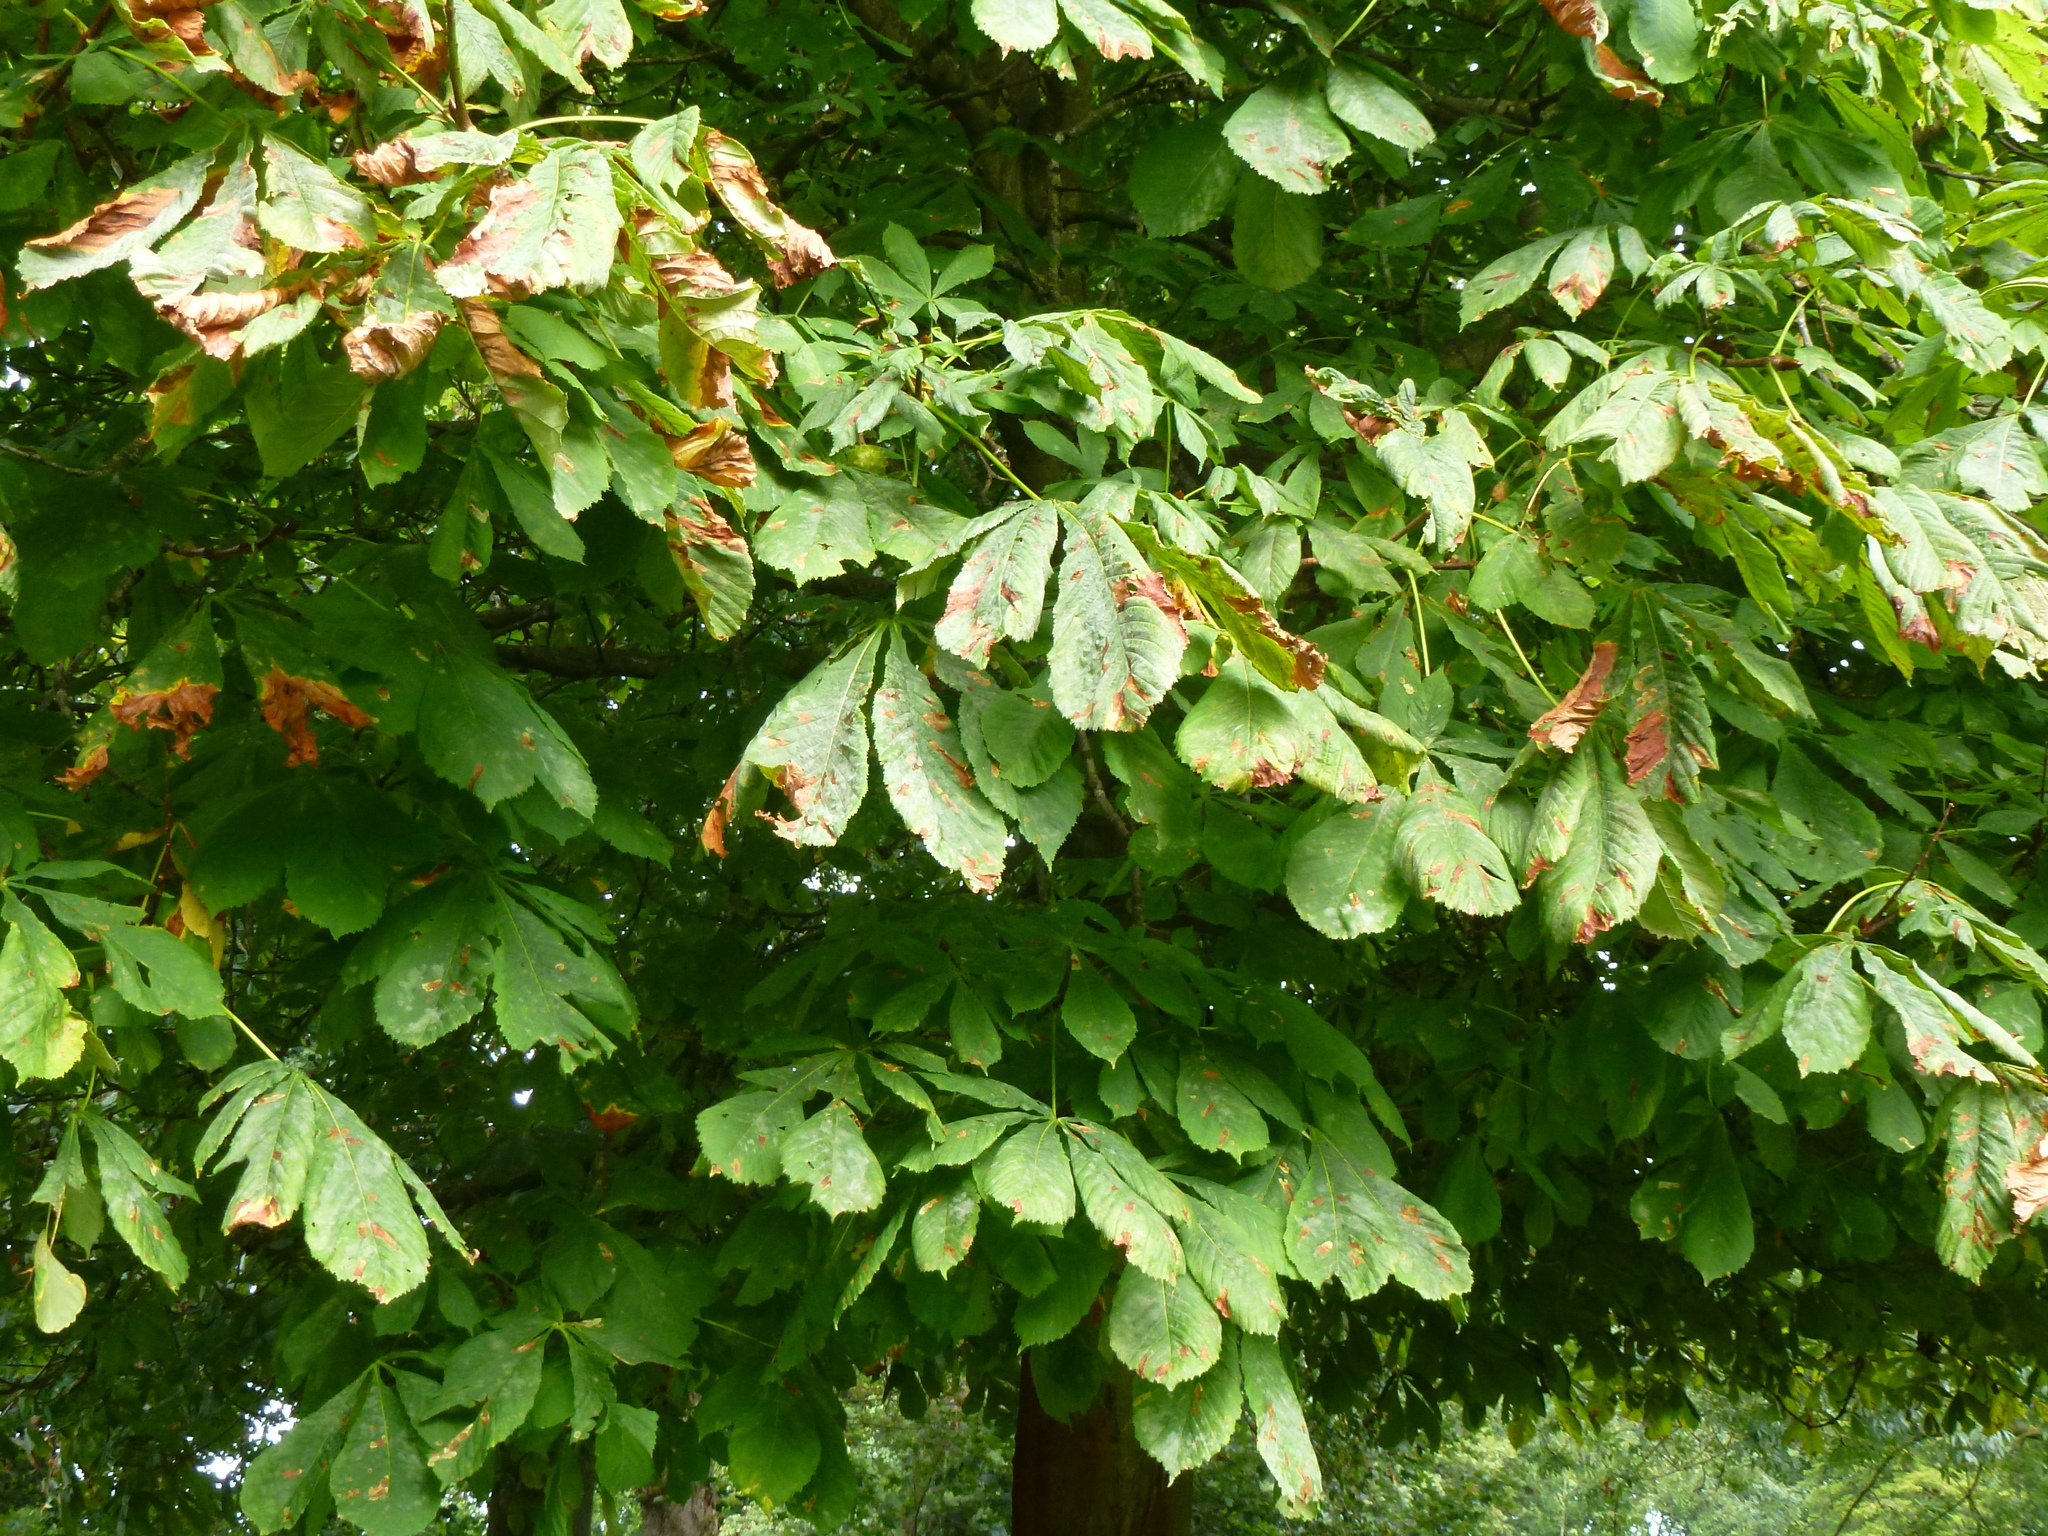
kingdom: Plantae
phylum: Tracheophyta
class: Magnoliopsida
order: Sapindales
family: Sapindaceae
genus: Aesculus
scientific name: Aesculus hippocastanum
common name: Horse-chestnut
